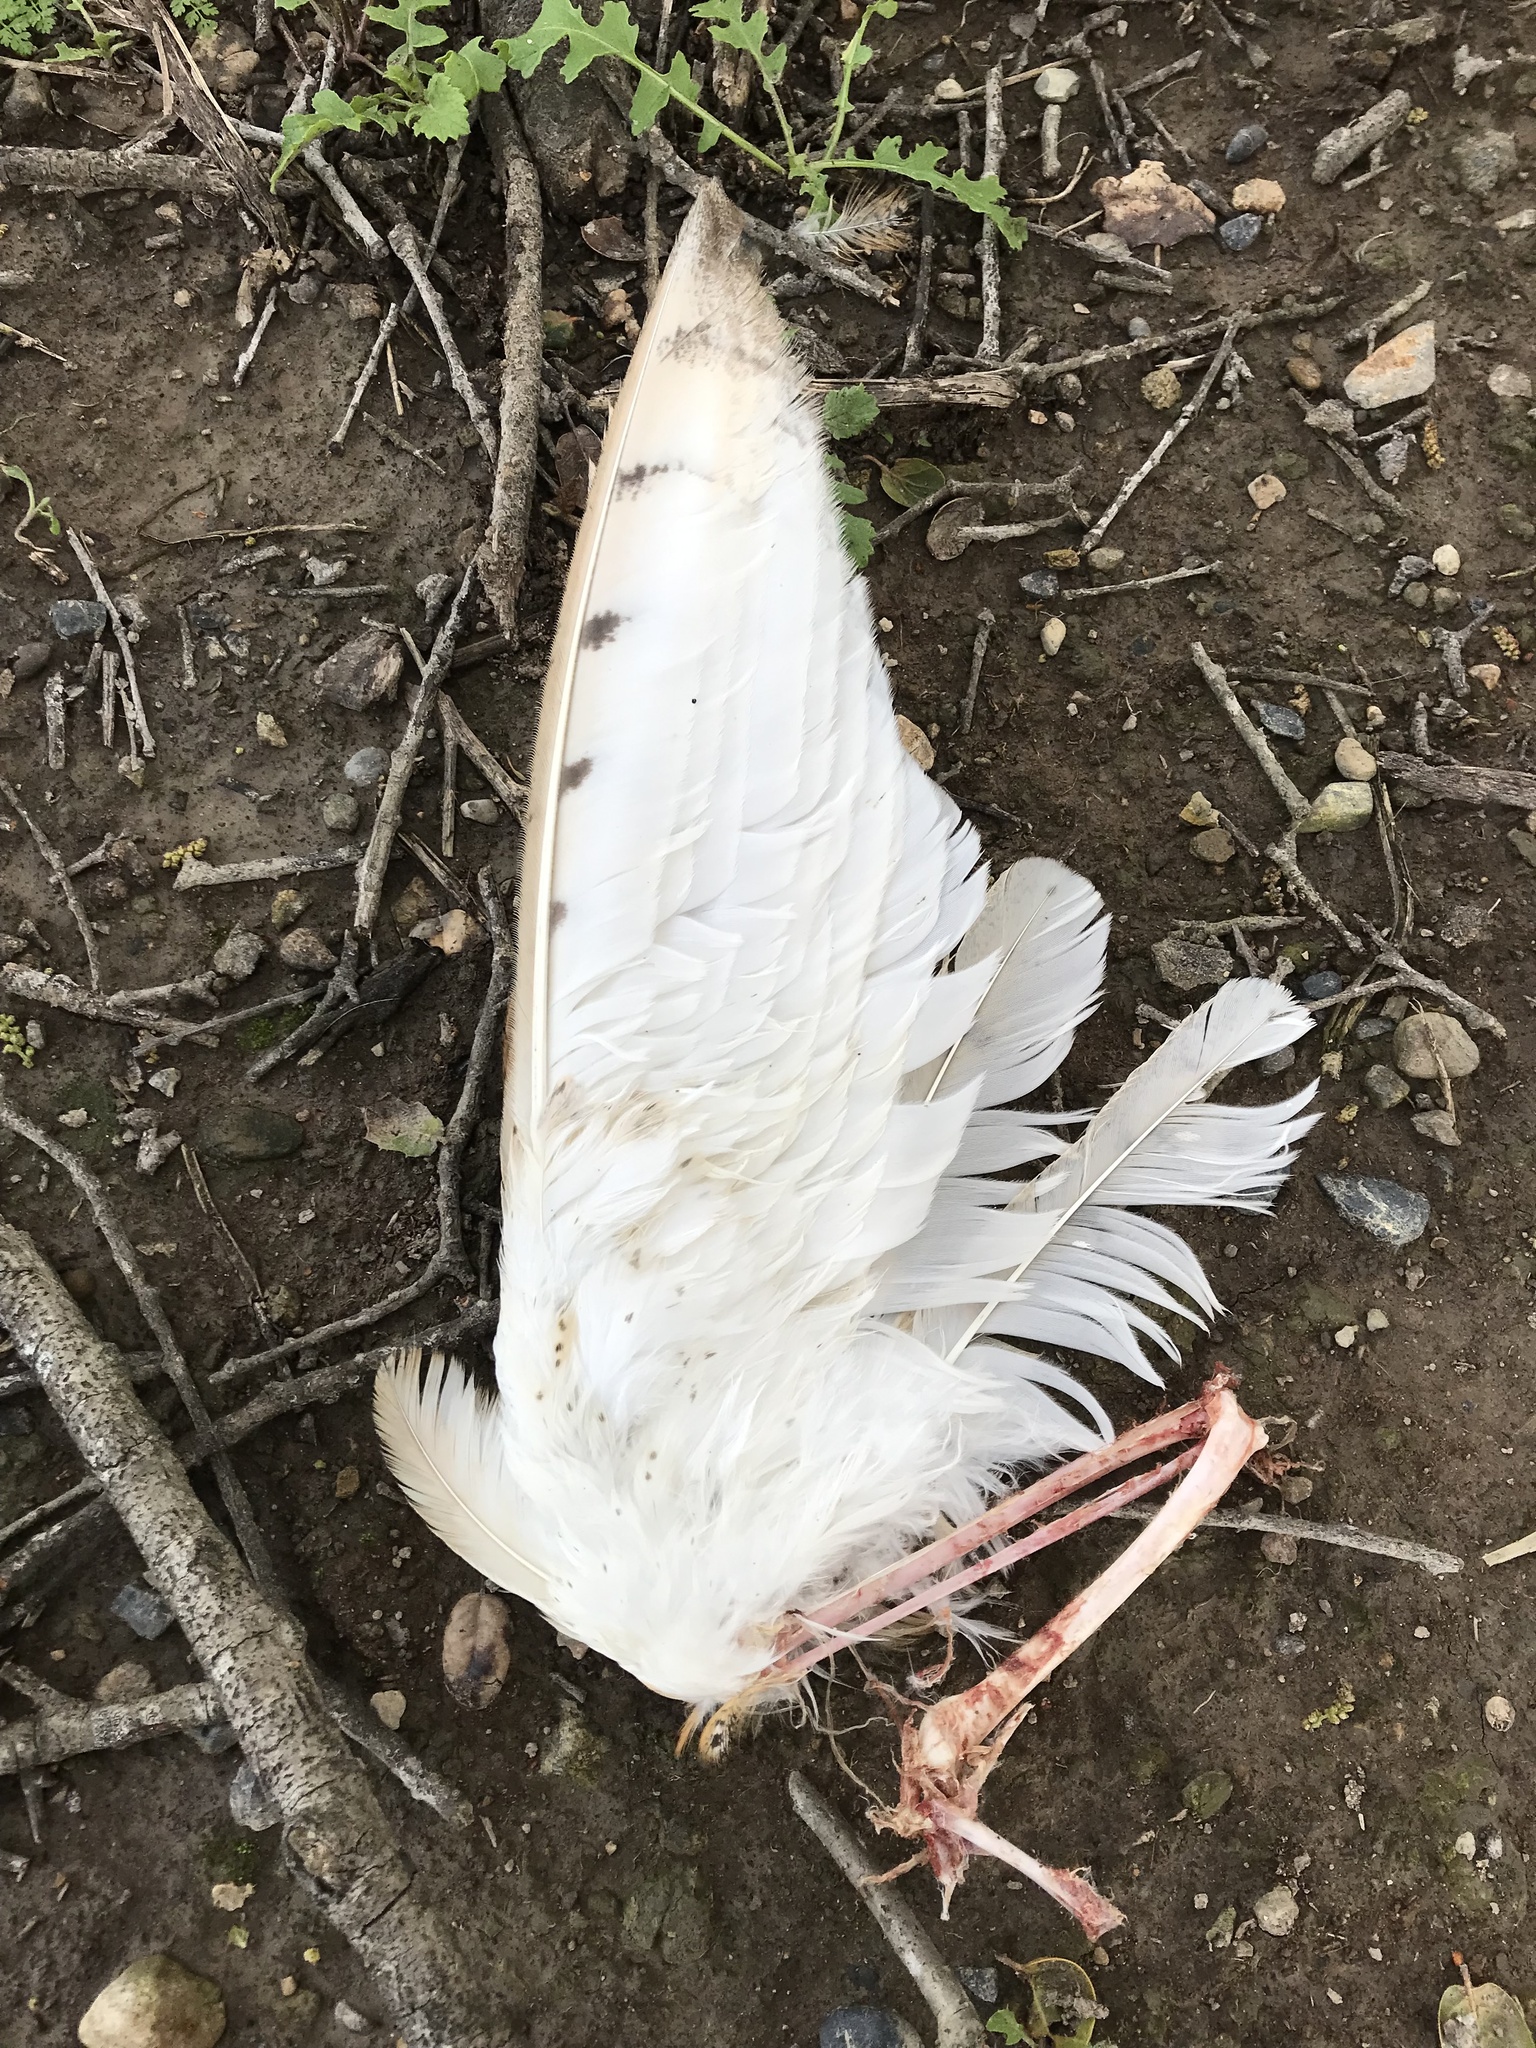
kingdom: Animalia
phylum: Chordata
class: Aves
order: Strigiformes
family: Tytonidae
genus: Tyto
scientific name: Tyto alba
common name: Barn owl
